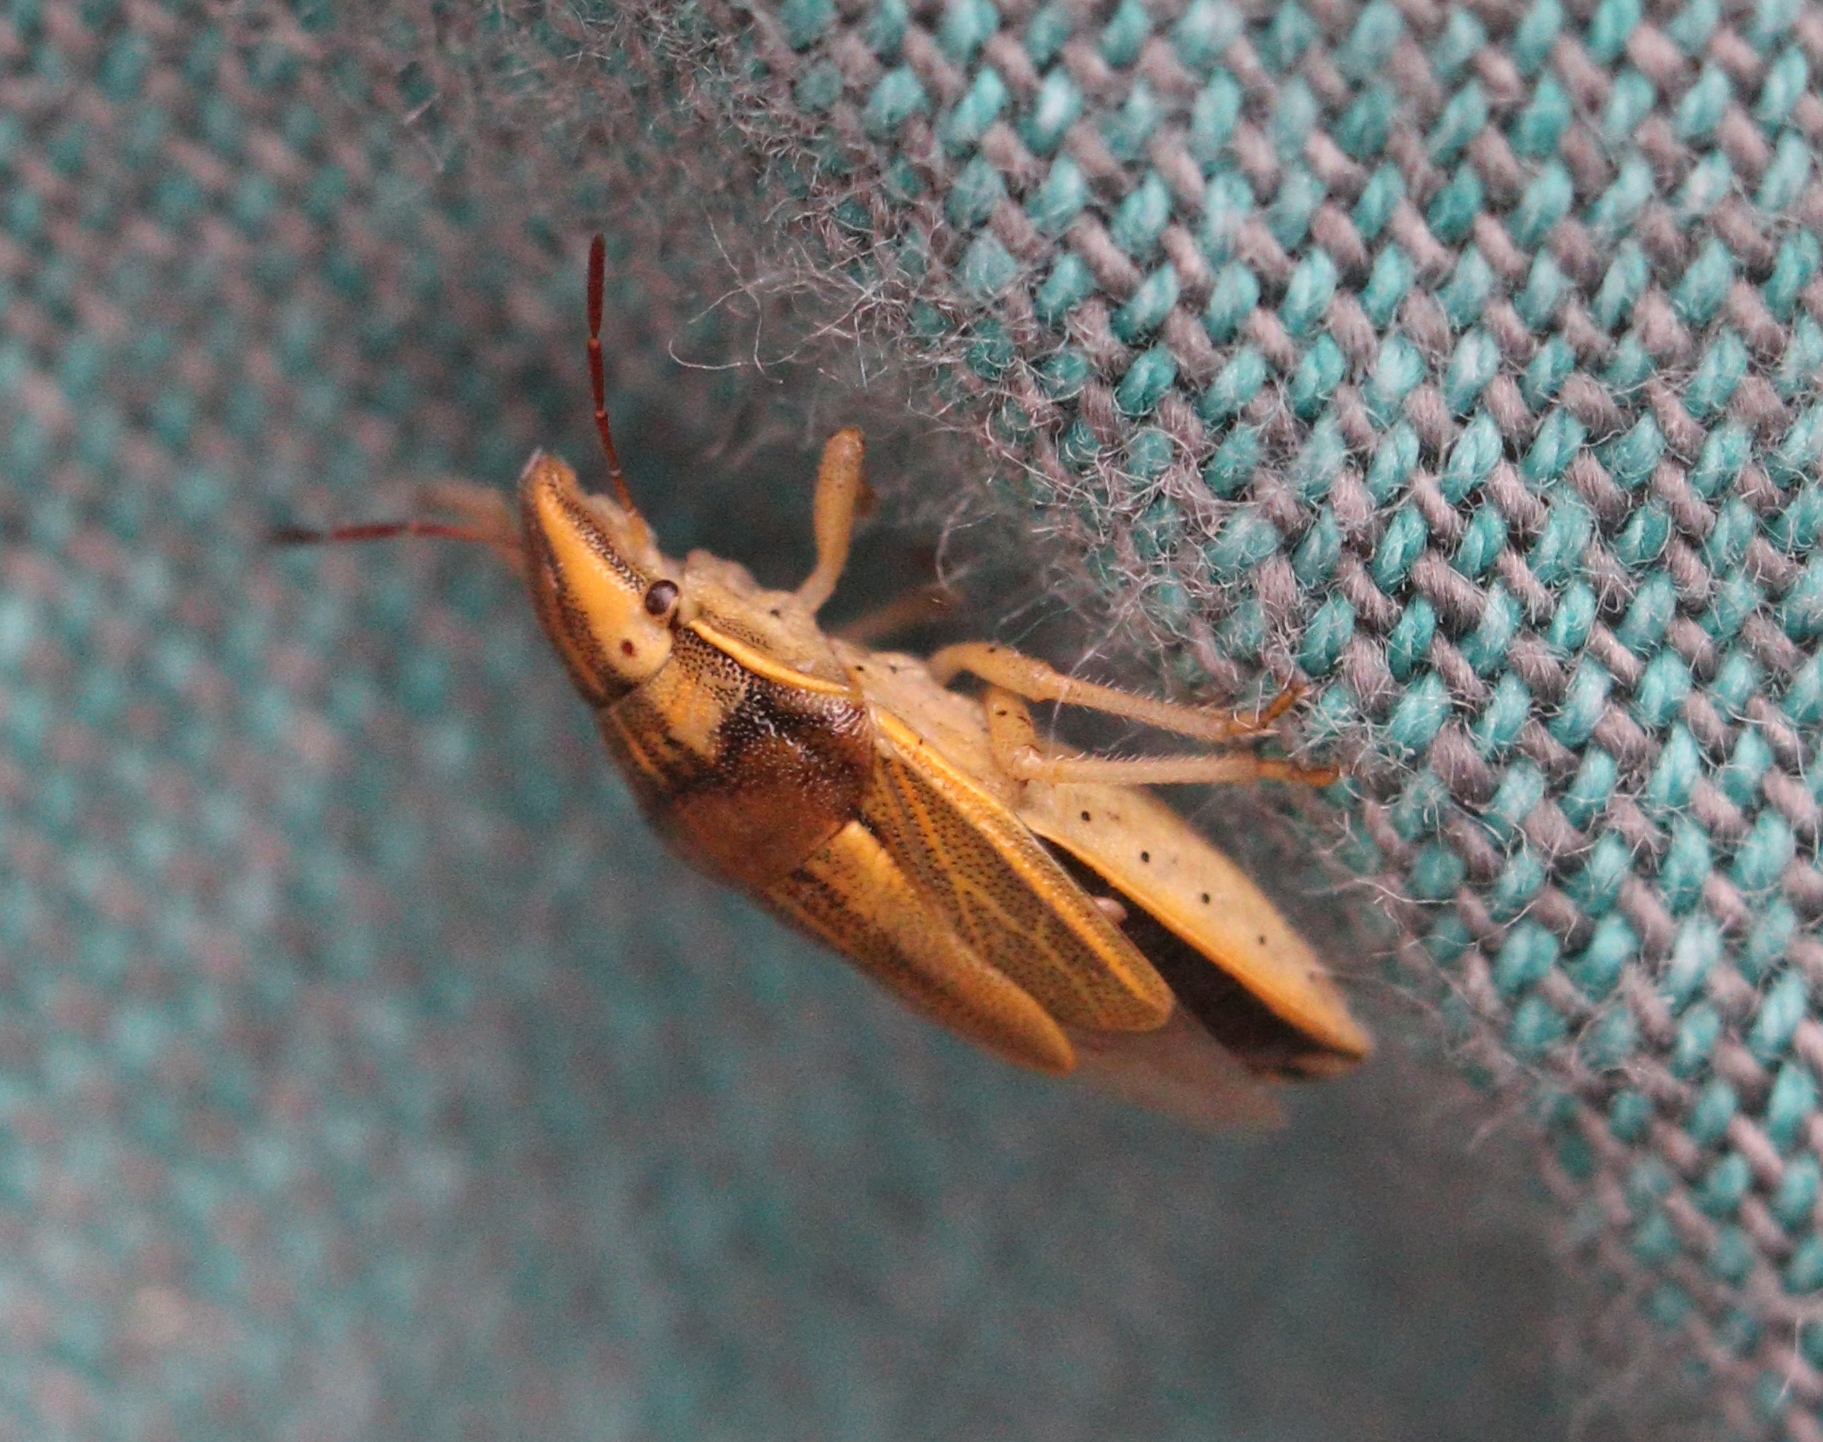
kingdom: Animalia
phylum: Arthropoda
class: Insecta
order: Hemiptera
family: Pentatomidae
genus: Aelia
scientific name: Aelia acuminata
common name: Bishop's mitre
